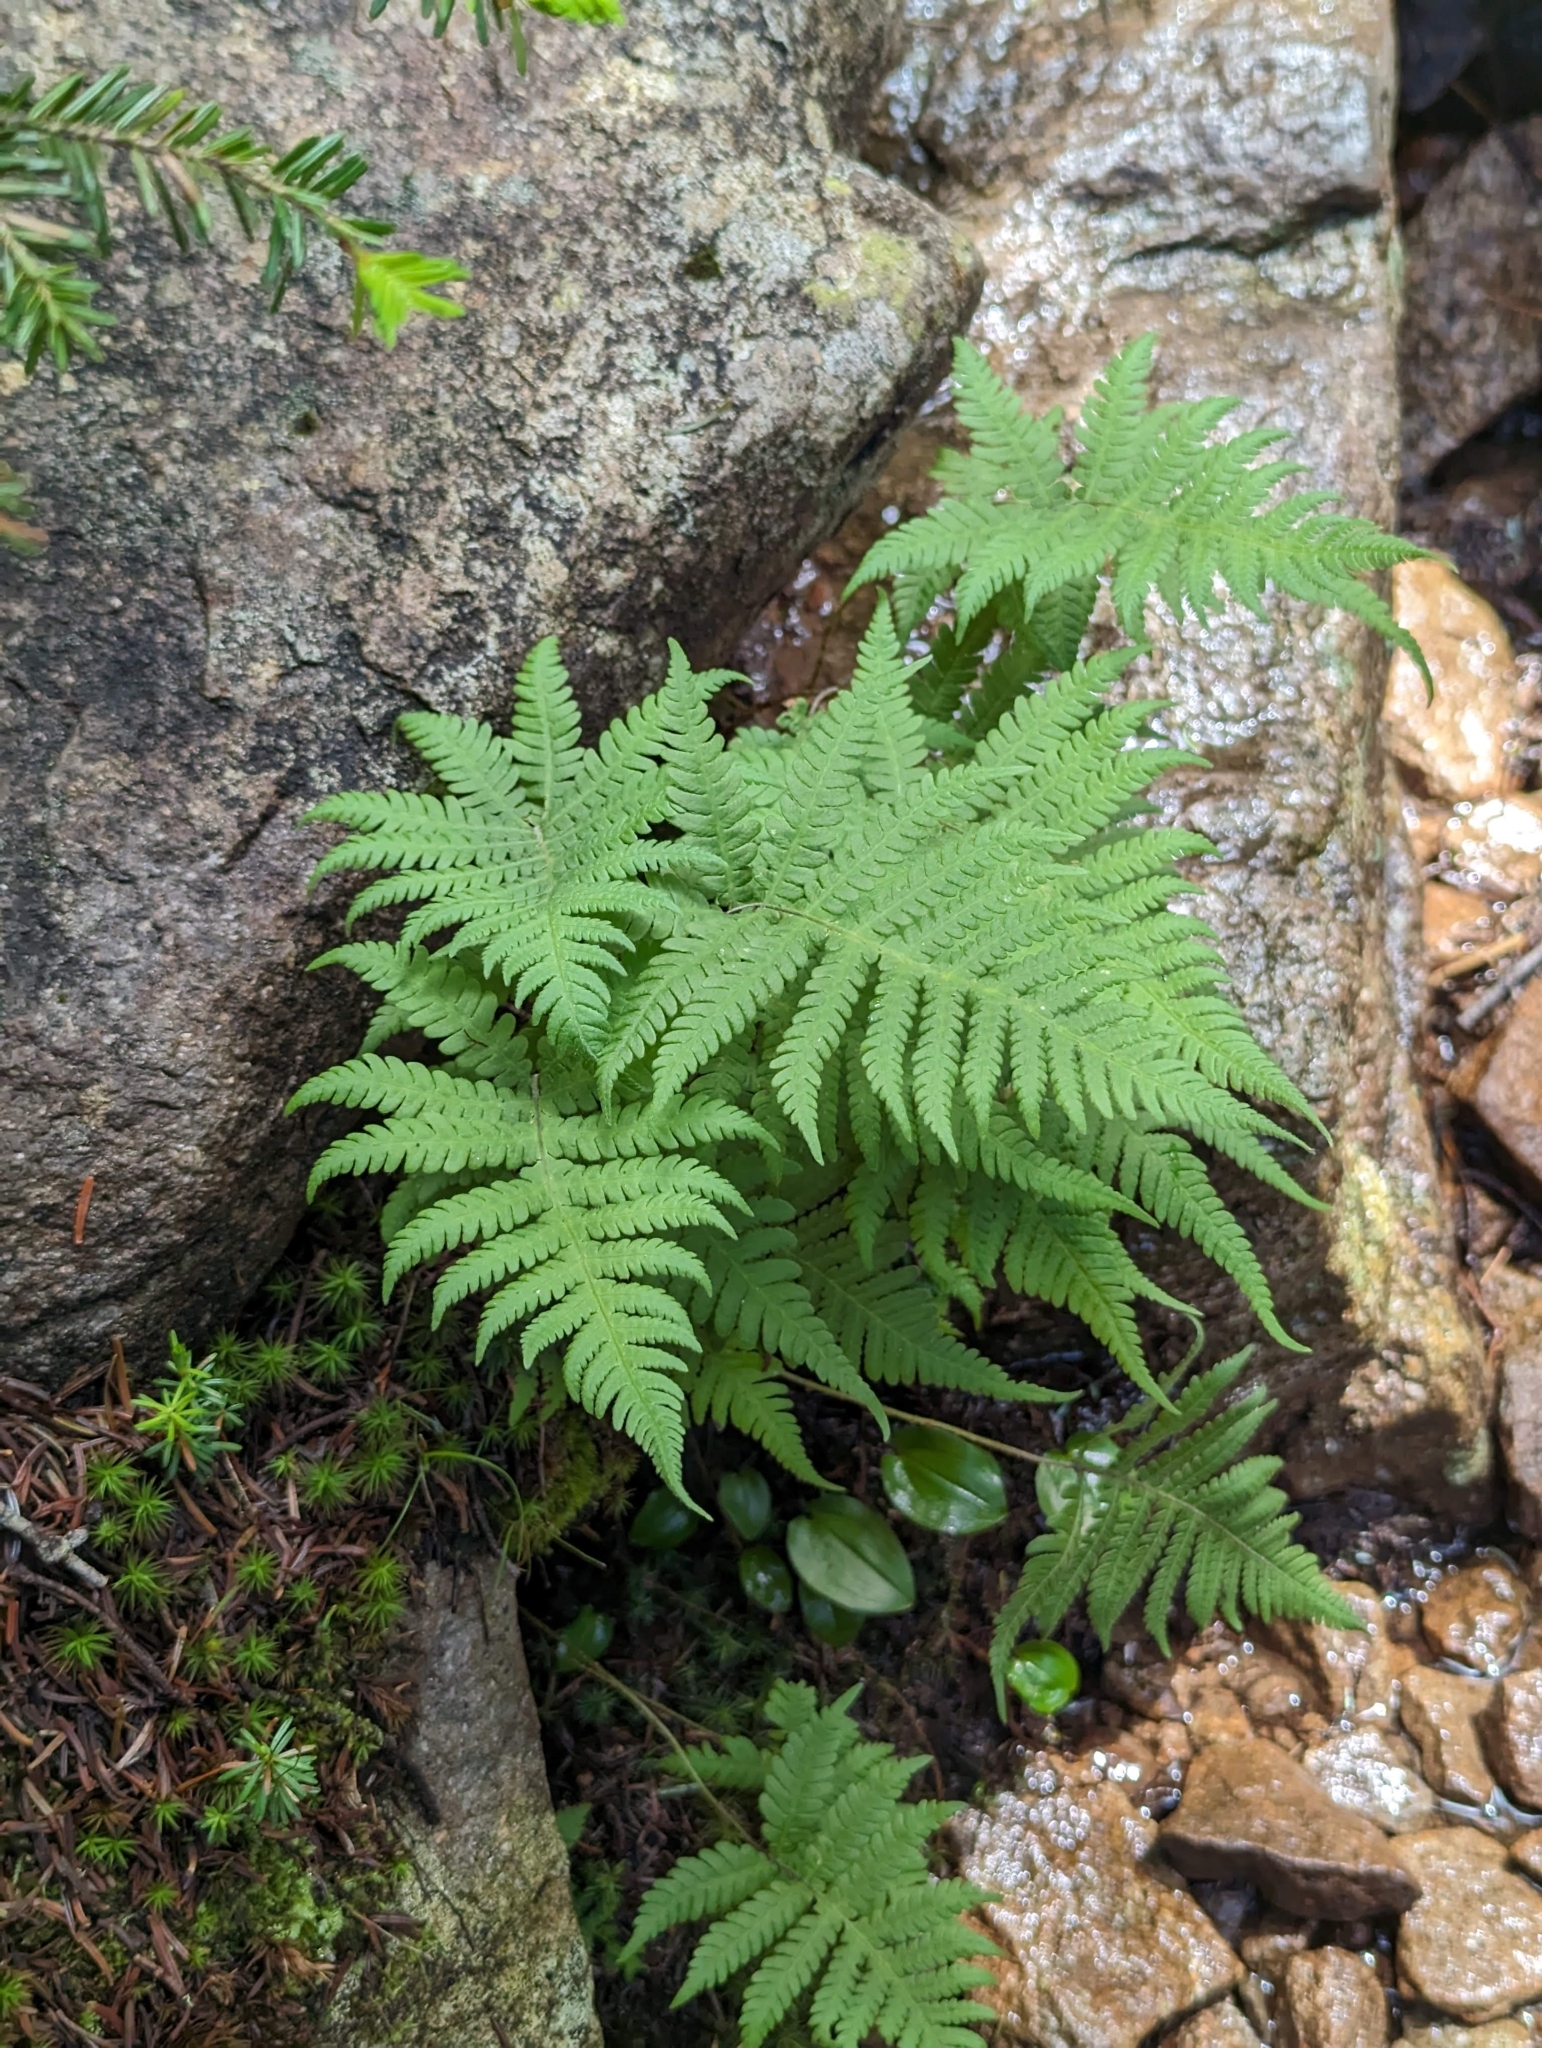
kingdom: Plantae
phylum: Tracheophyta
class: Polypodiopsida
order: Polypodiales
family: Thelypteridaceae
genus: Phegopteris
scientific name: Phegopteris connectilis
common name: Beech fern
